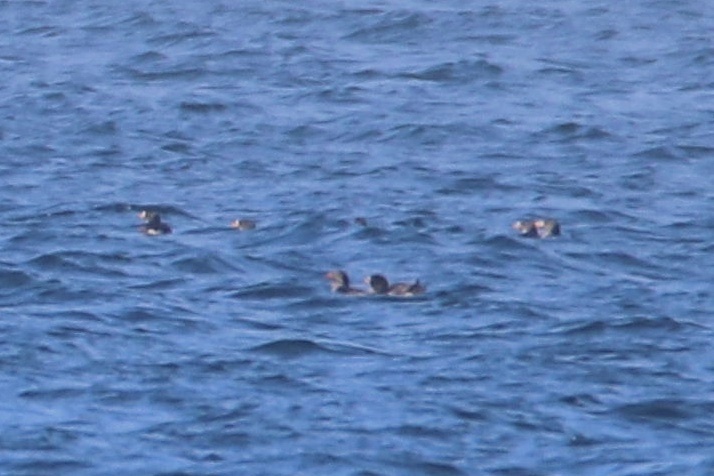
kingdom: Animalia
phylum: Chordata
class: Aves
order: Charadriiformes
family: Alcidae
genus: Cerorhinca
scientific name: Cerorhinca monocerata
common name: Rhinoceros auklet
